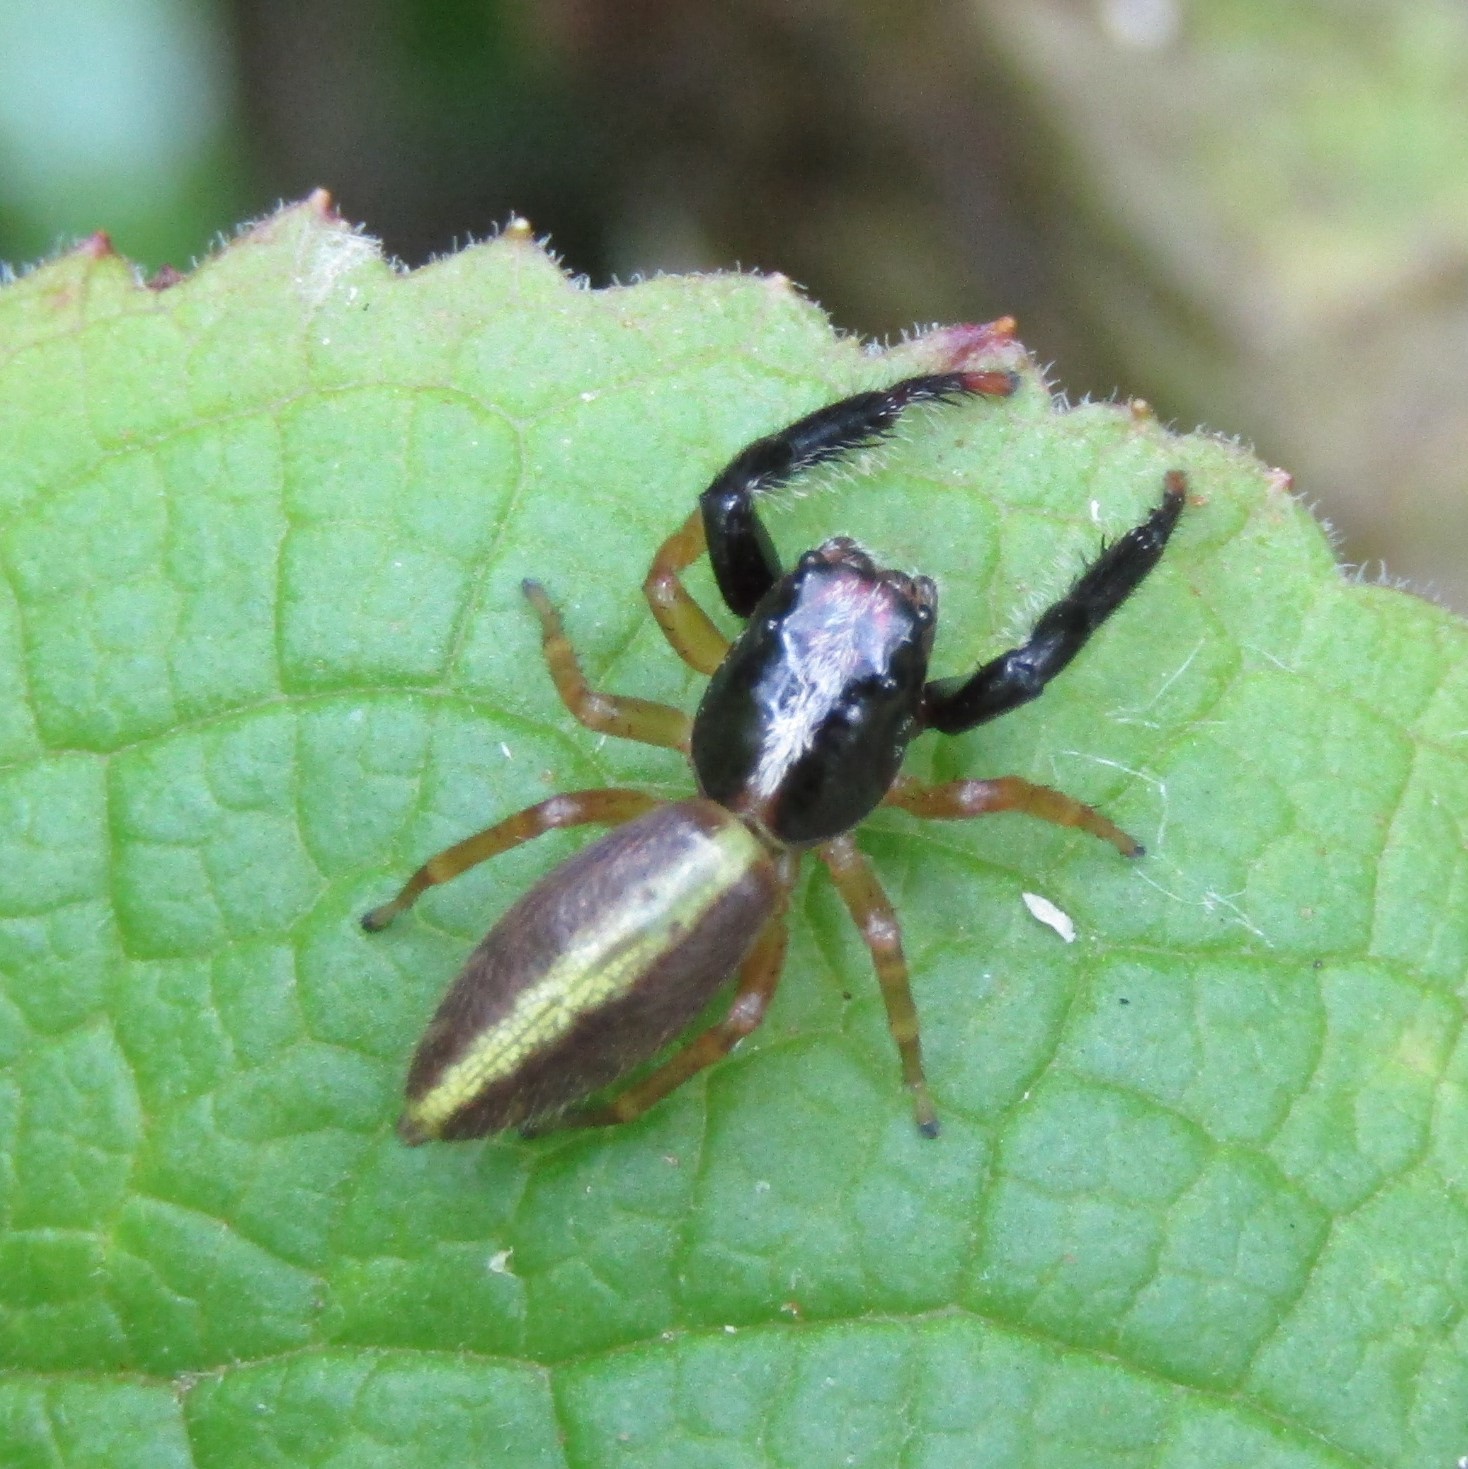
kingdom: Animalia
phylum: Arthropoda
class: Arachnida
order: Araneae
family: Salticidae
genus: Trite
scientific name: Trite planiceps
